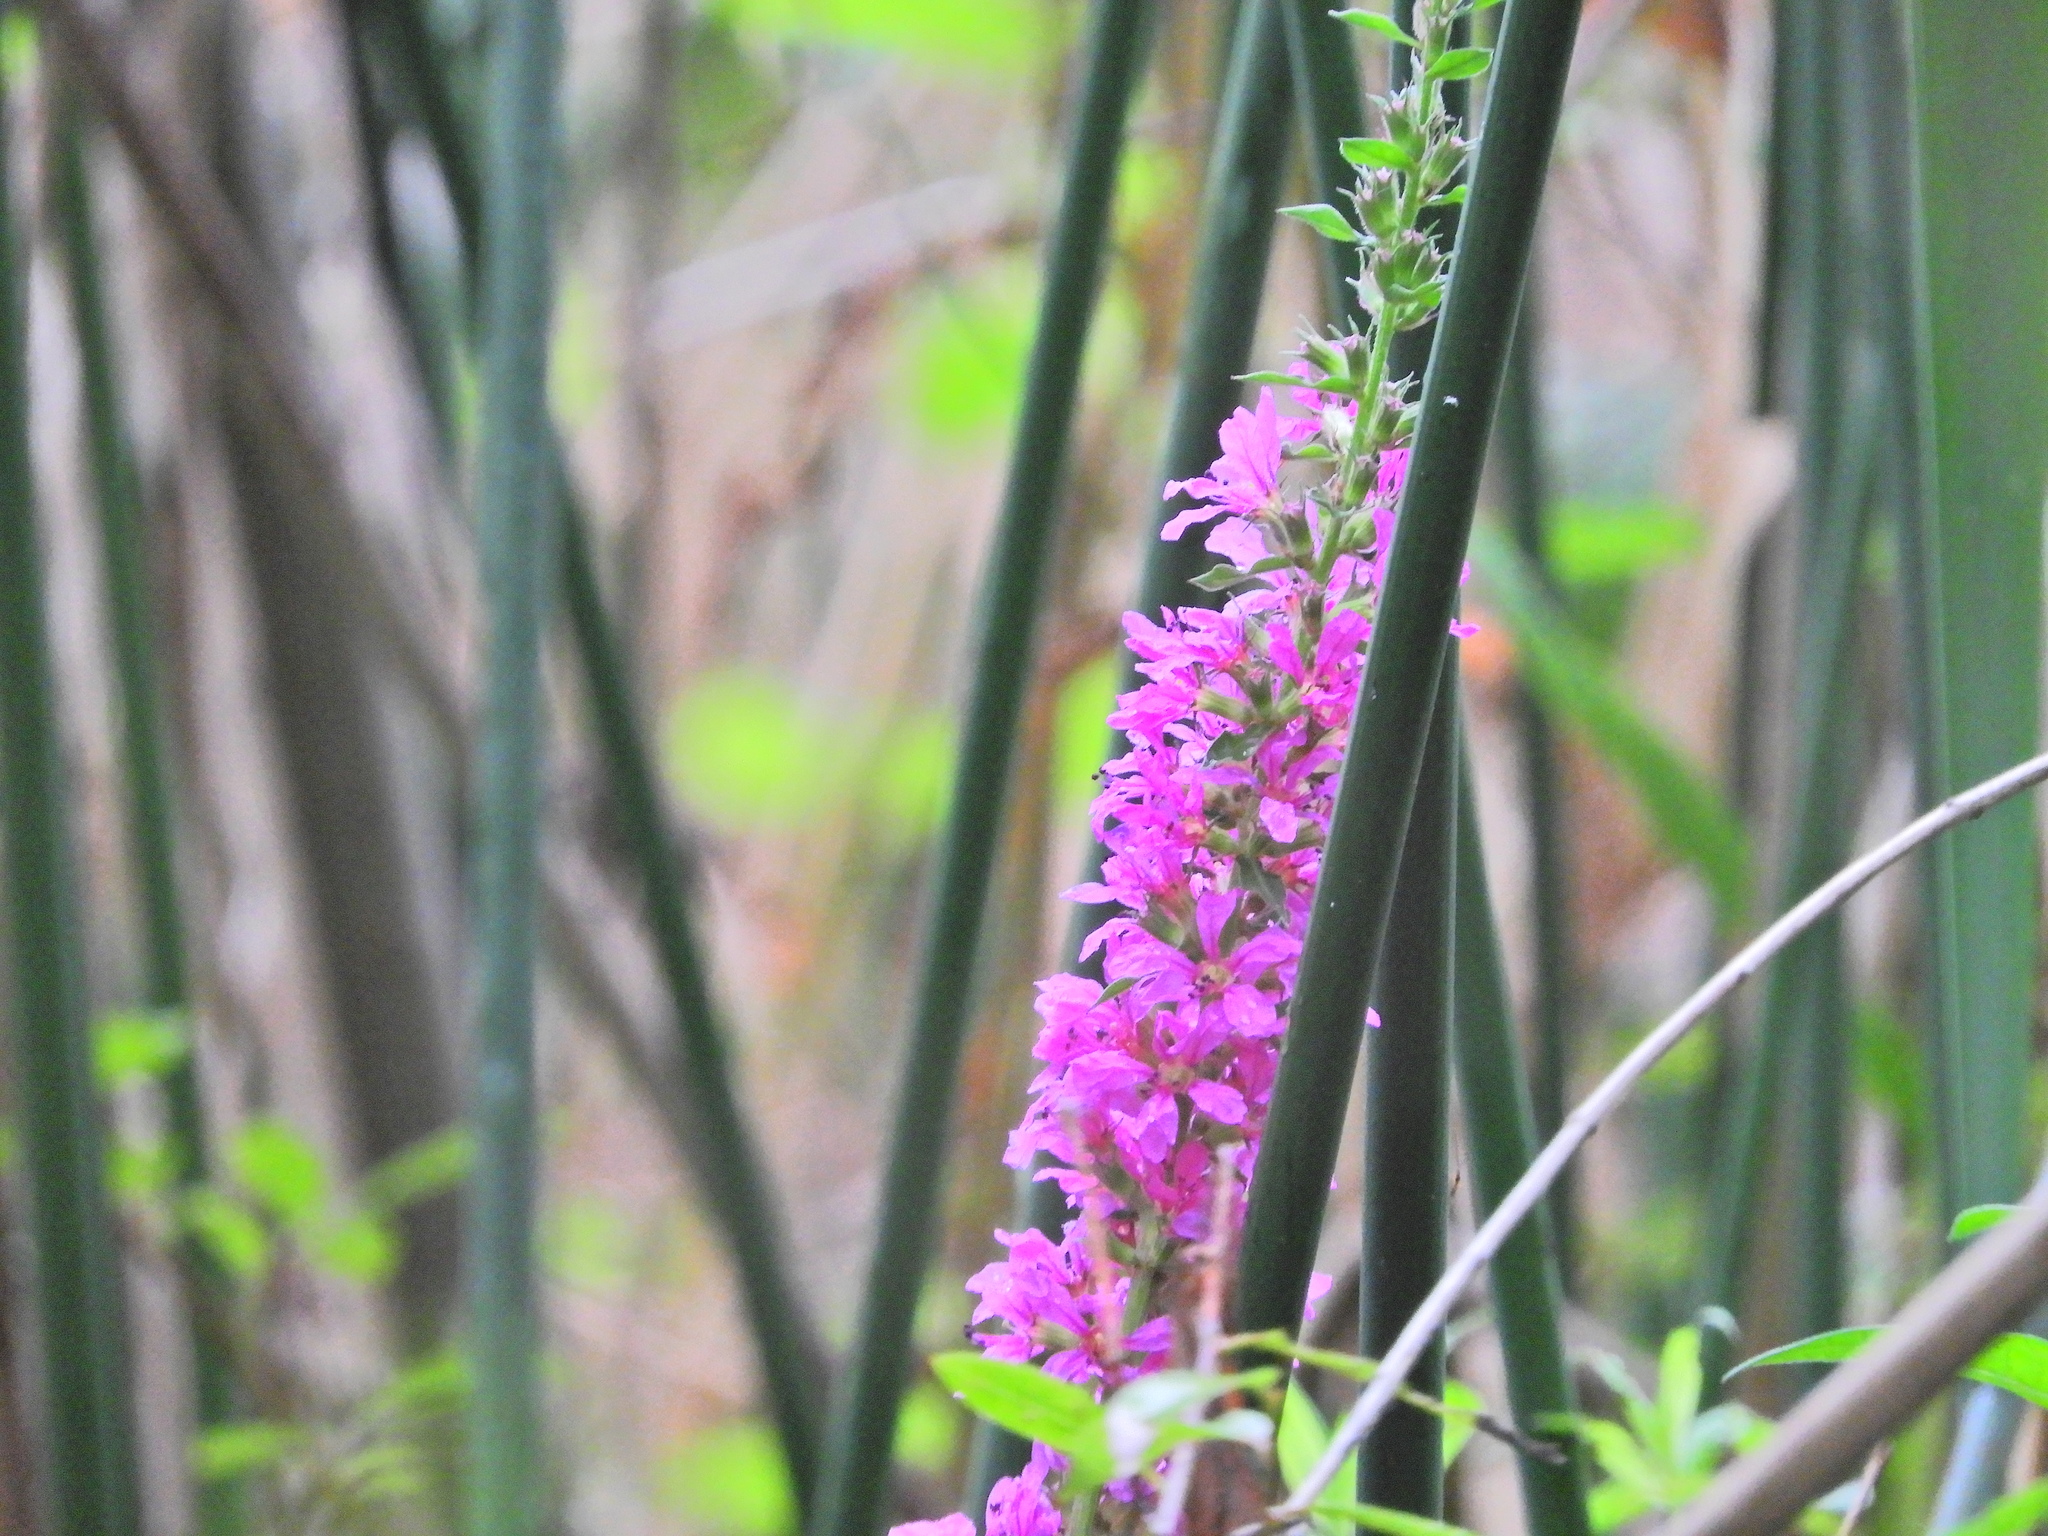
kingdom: Plantae
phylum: Tracheophyta
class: Magnoliopsida
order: Myrtales
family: Lythraceae
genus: Lythrum
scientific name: Lythrum salicaria
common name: Purple loosestrife
